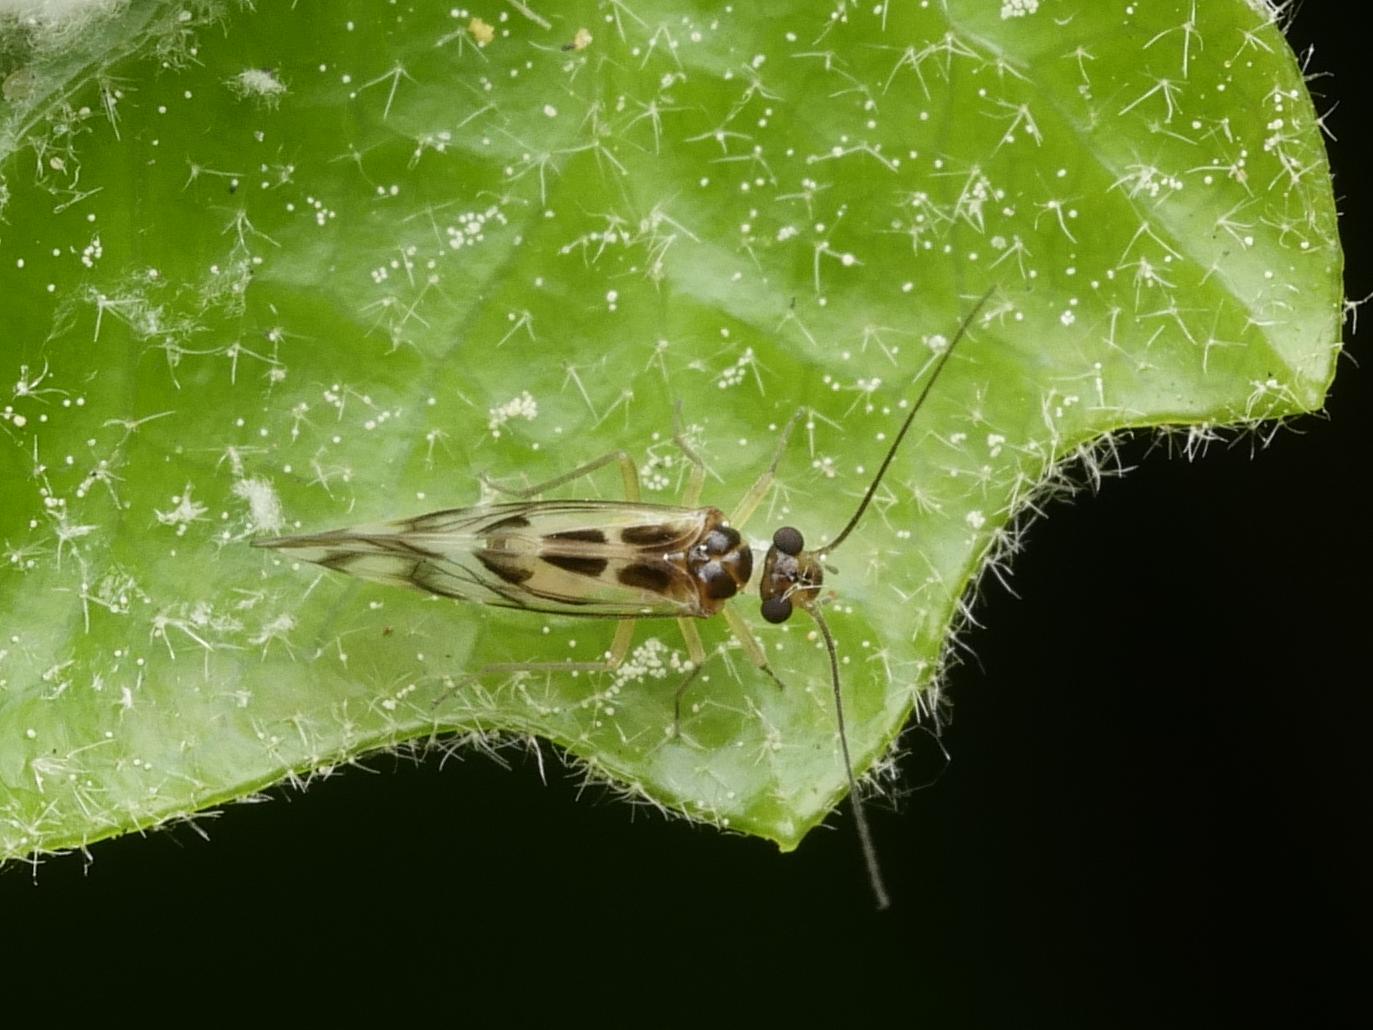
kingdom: Animalia
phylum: Arthropoda
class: Insecta
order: Psocodea
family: Stenopsocidae
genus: Graphopsocus
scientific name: Graphopsocus cruciatus
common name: Lizard bark louse
